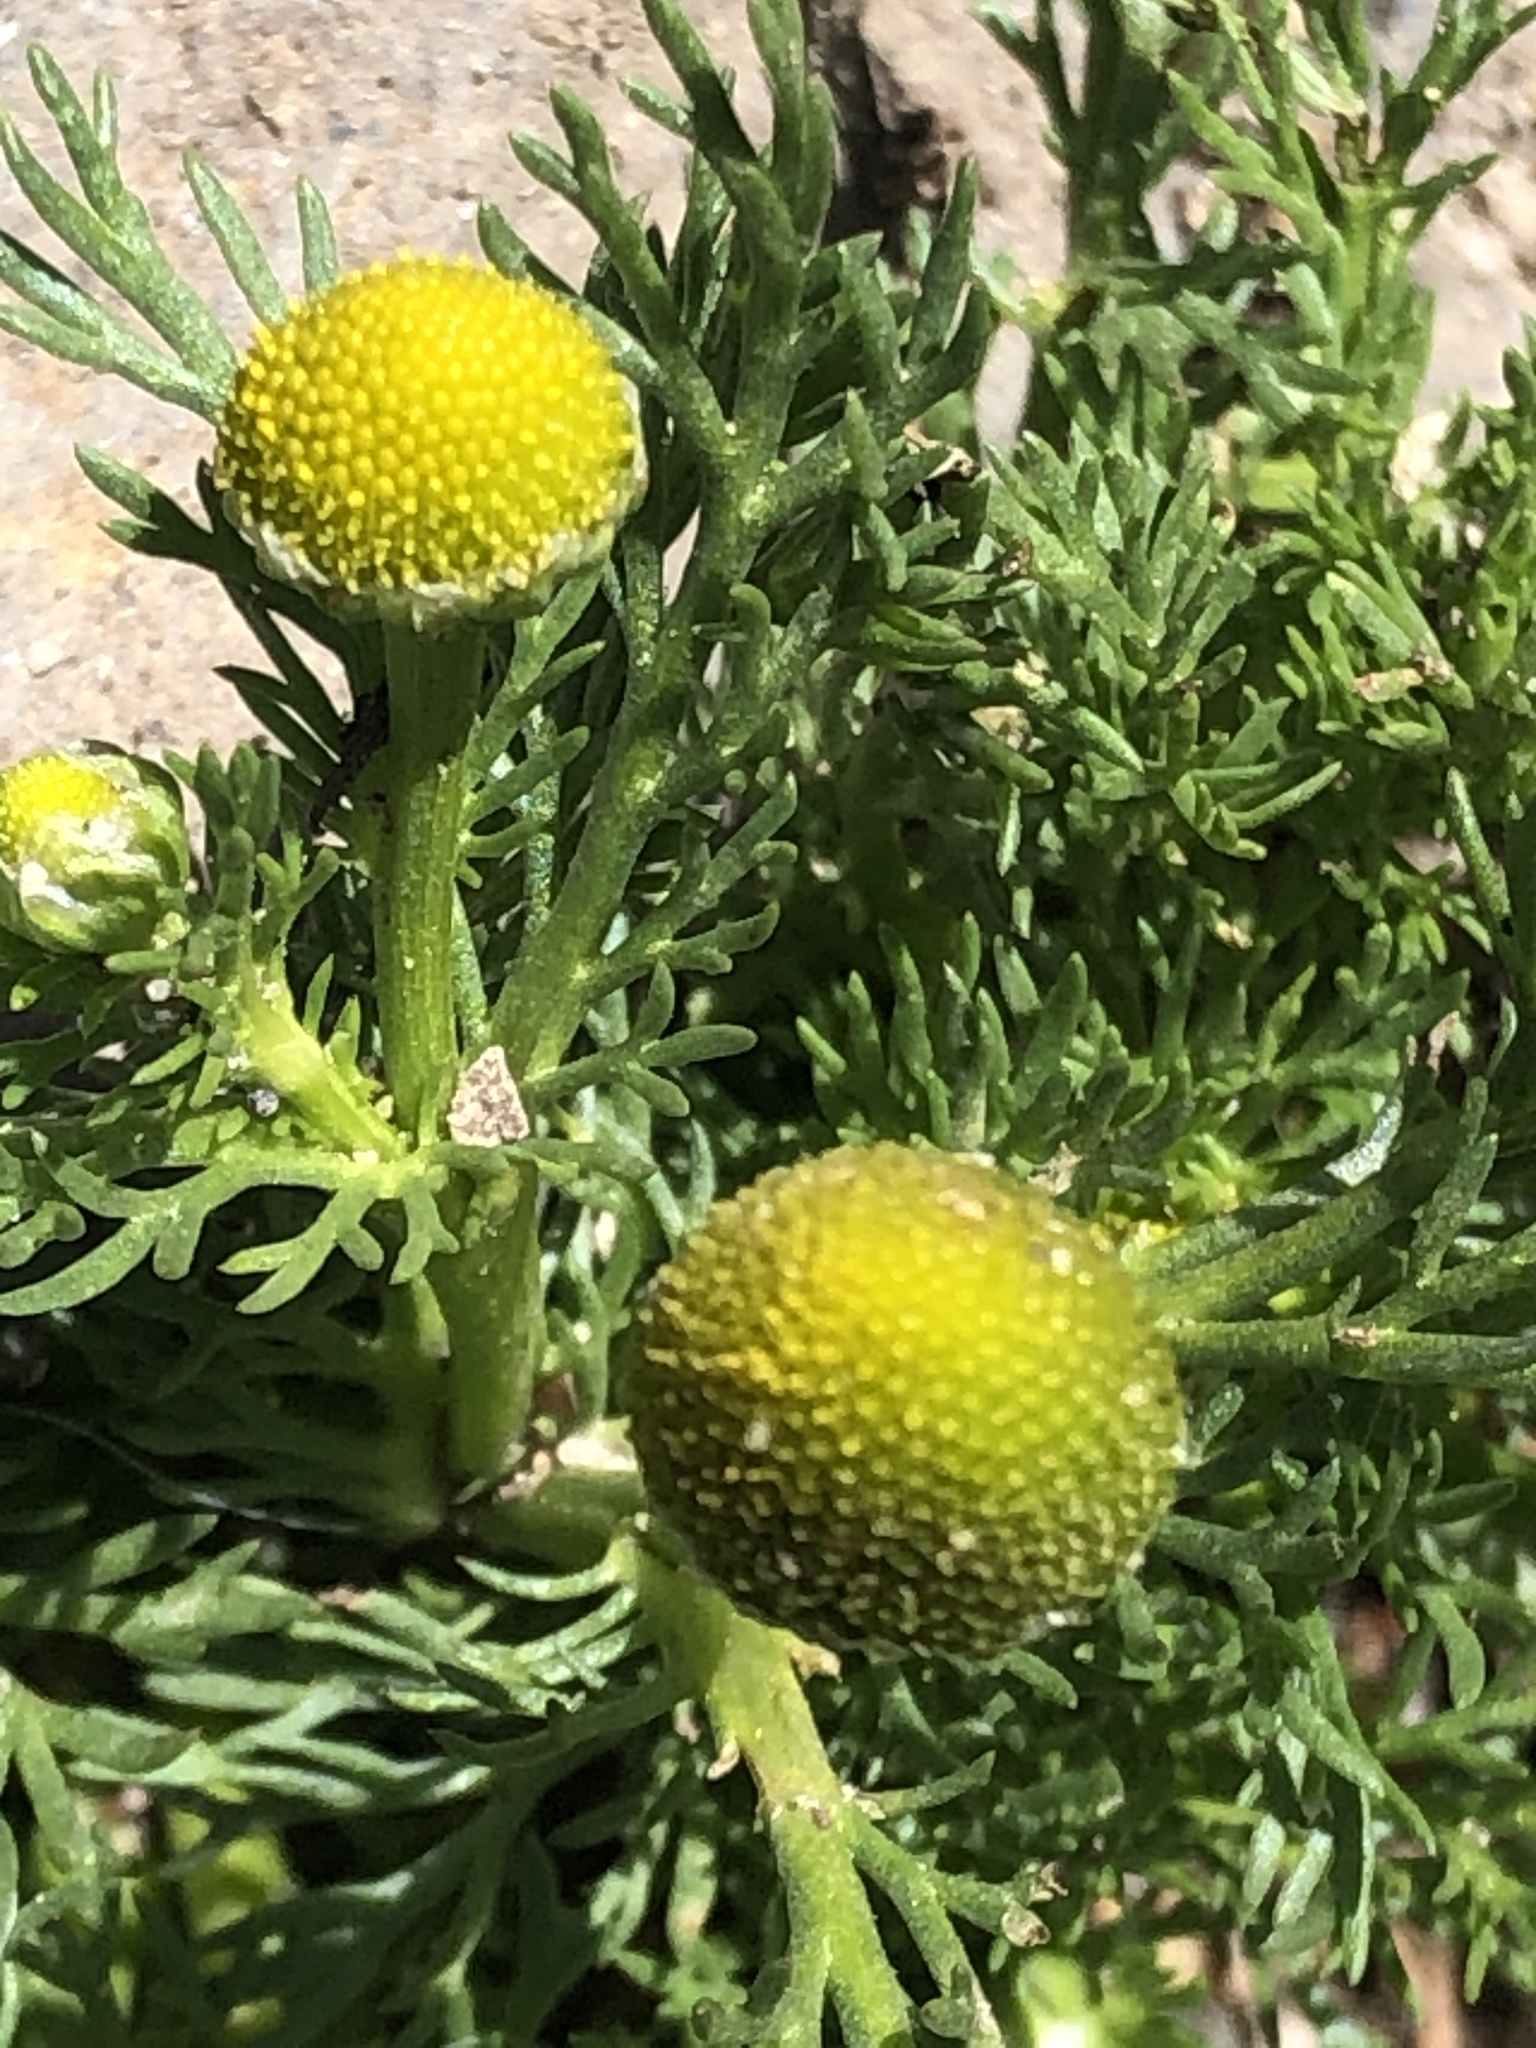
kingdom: Plantae
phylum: Tracheophyta
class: Magnoliopsida
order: Asterales
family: Asteraceae
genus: Matricaria
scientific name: Matricaria discoidea
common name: Disc mayweed
